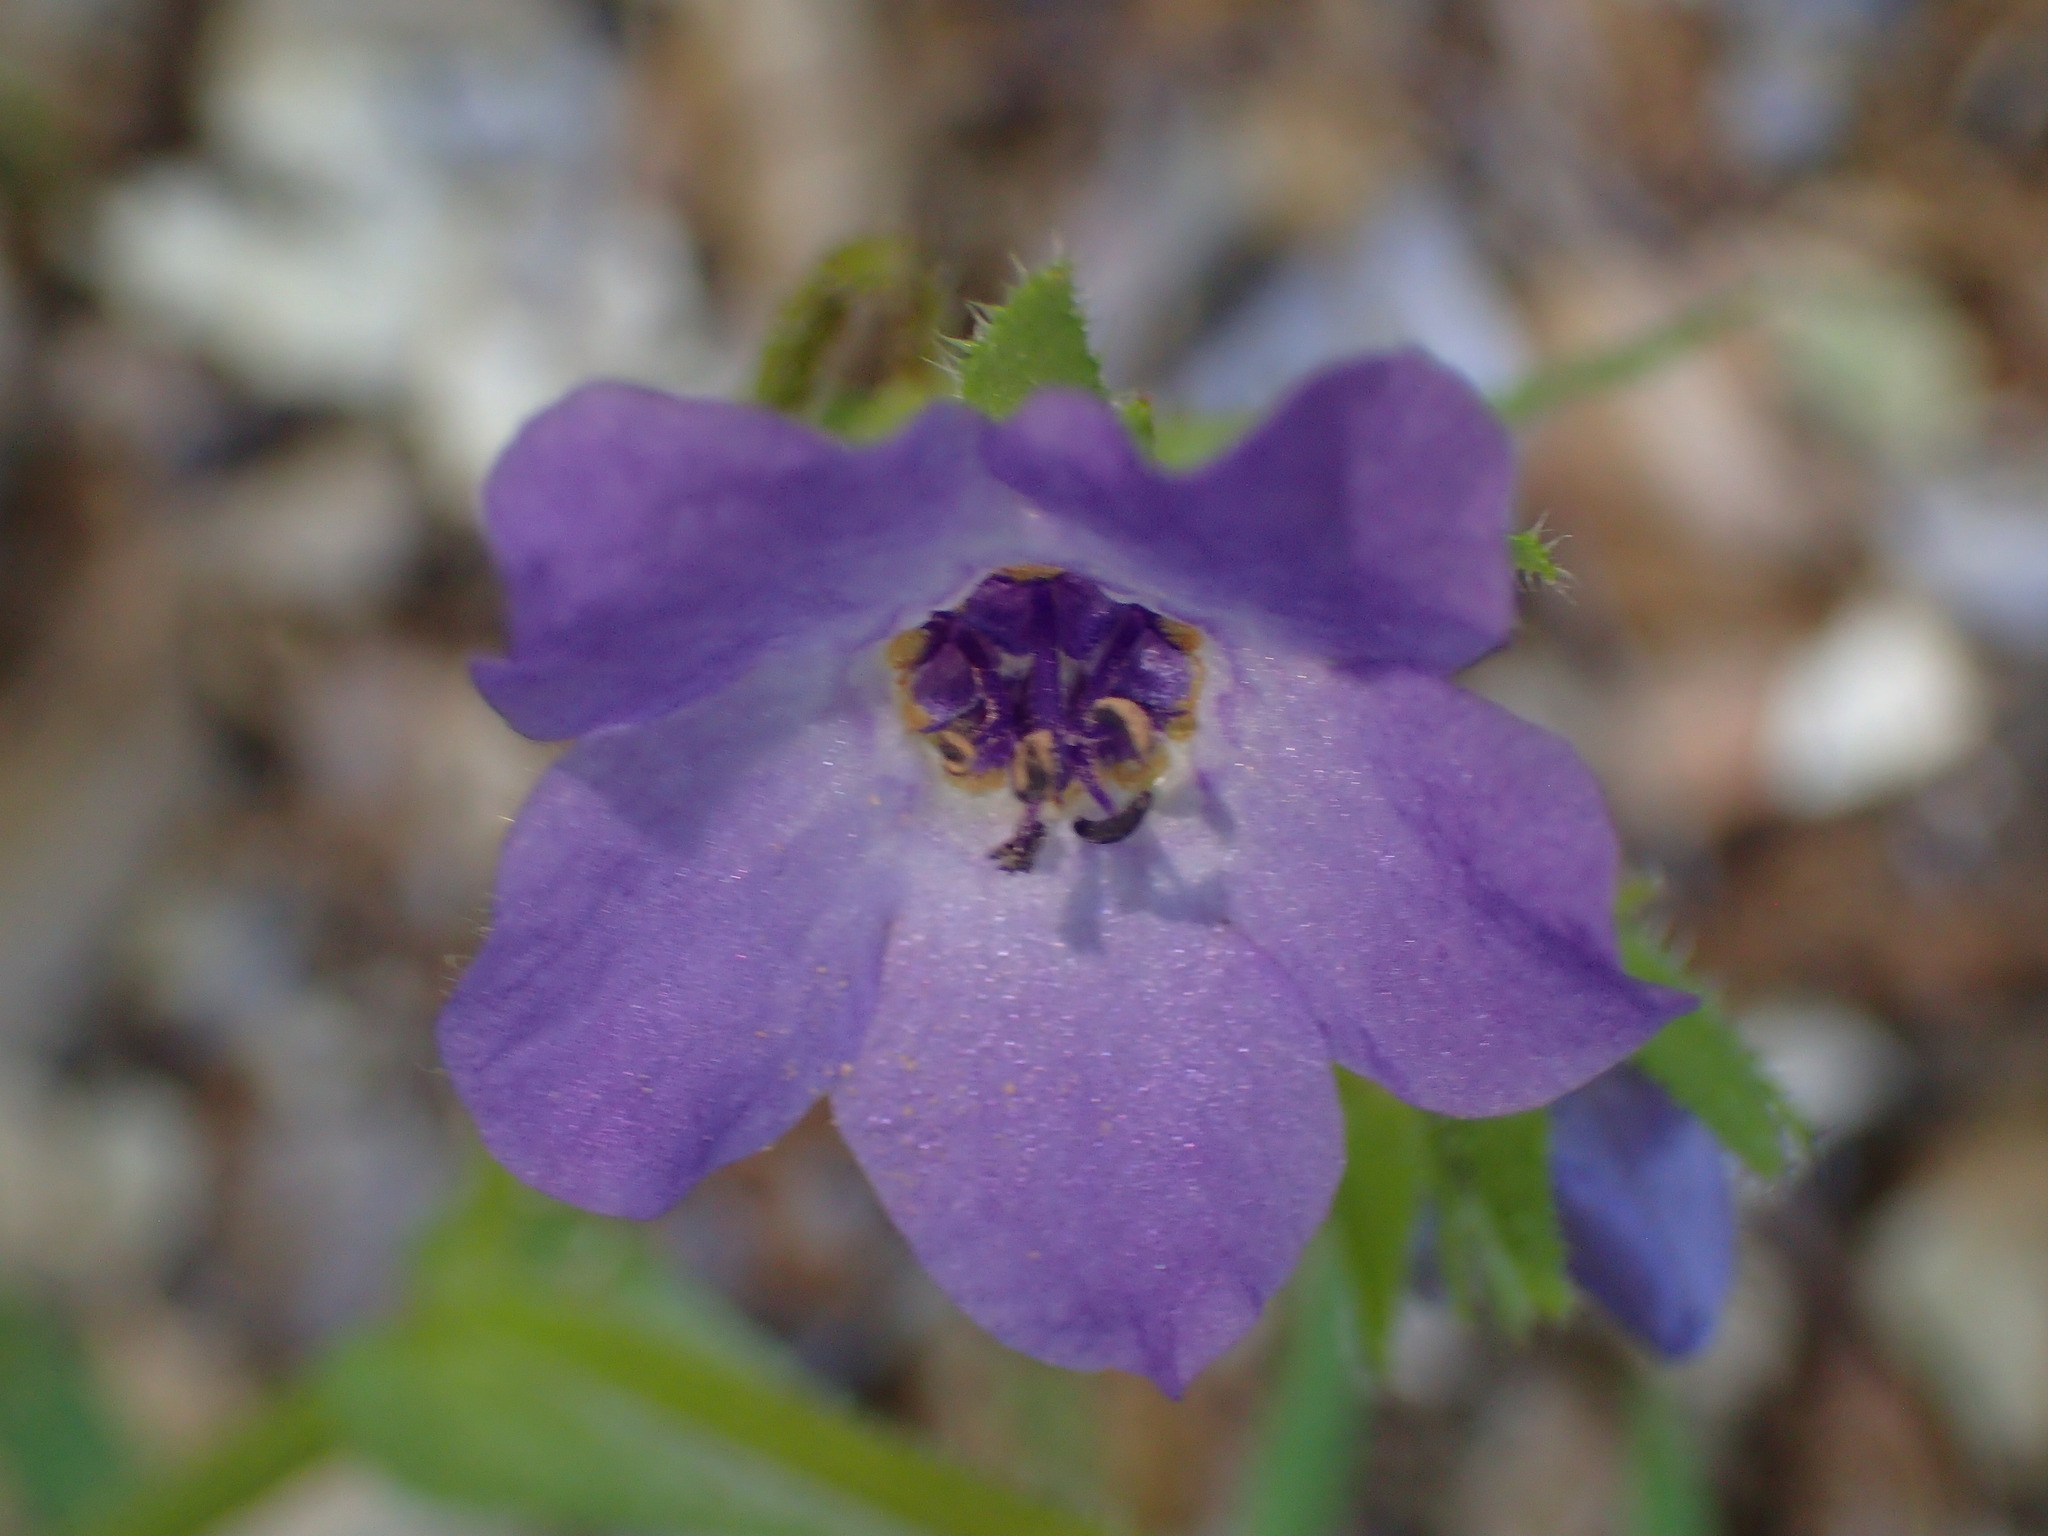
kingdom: Plantae
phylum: Tracheophyta
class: Magnoliopsida
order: Boraginales
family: Hydrophyllaceae
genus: Pholistoma
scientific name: Pholistoma auritum
